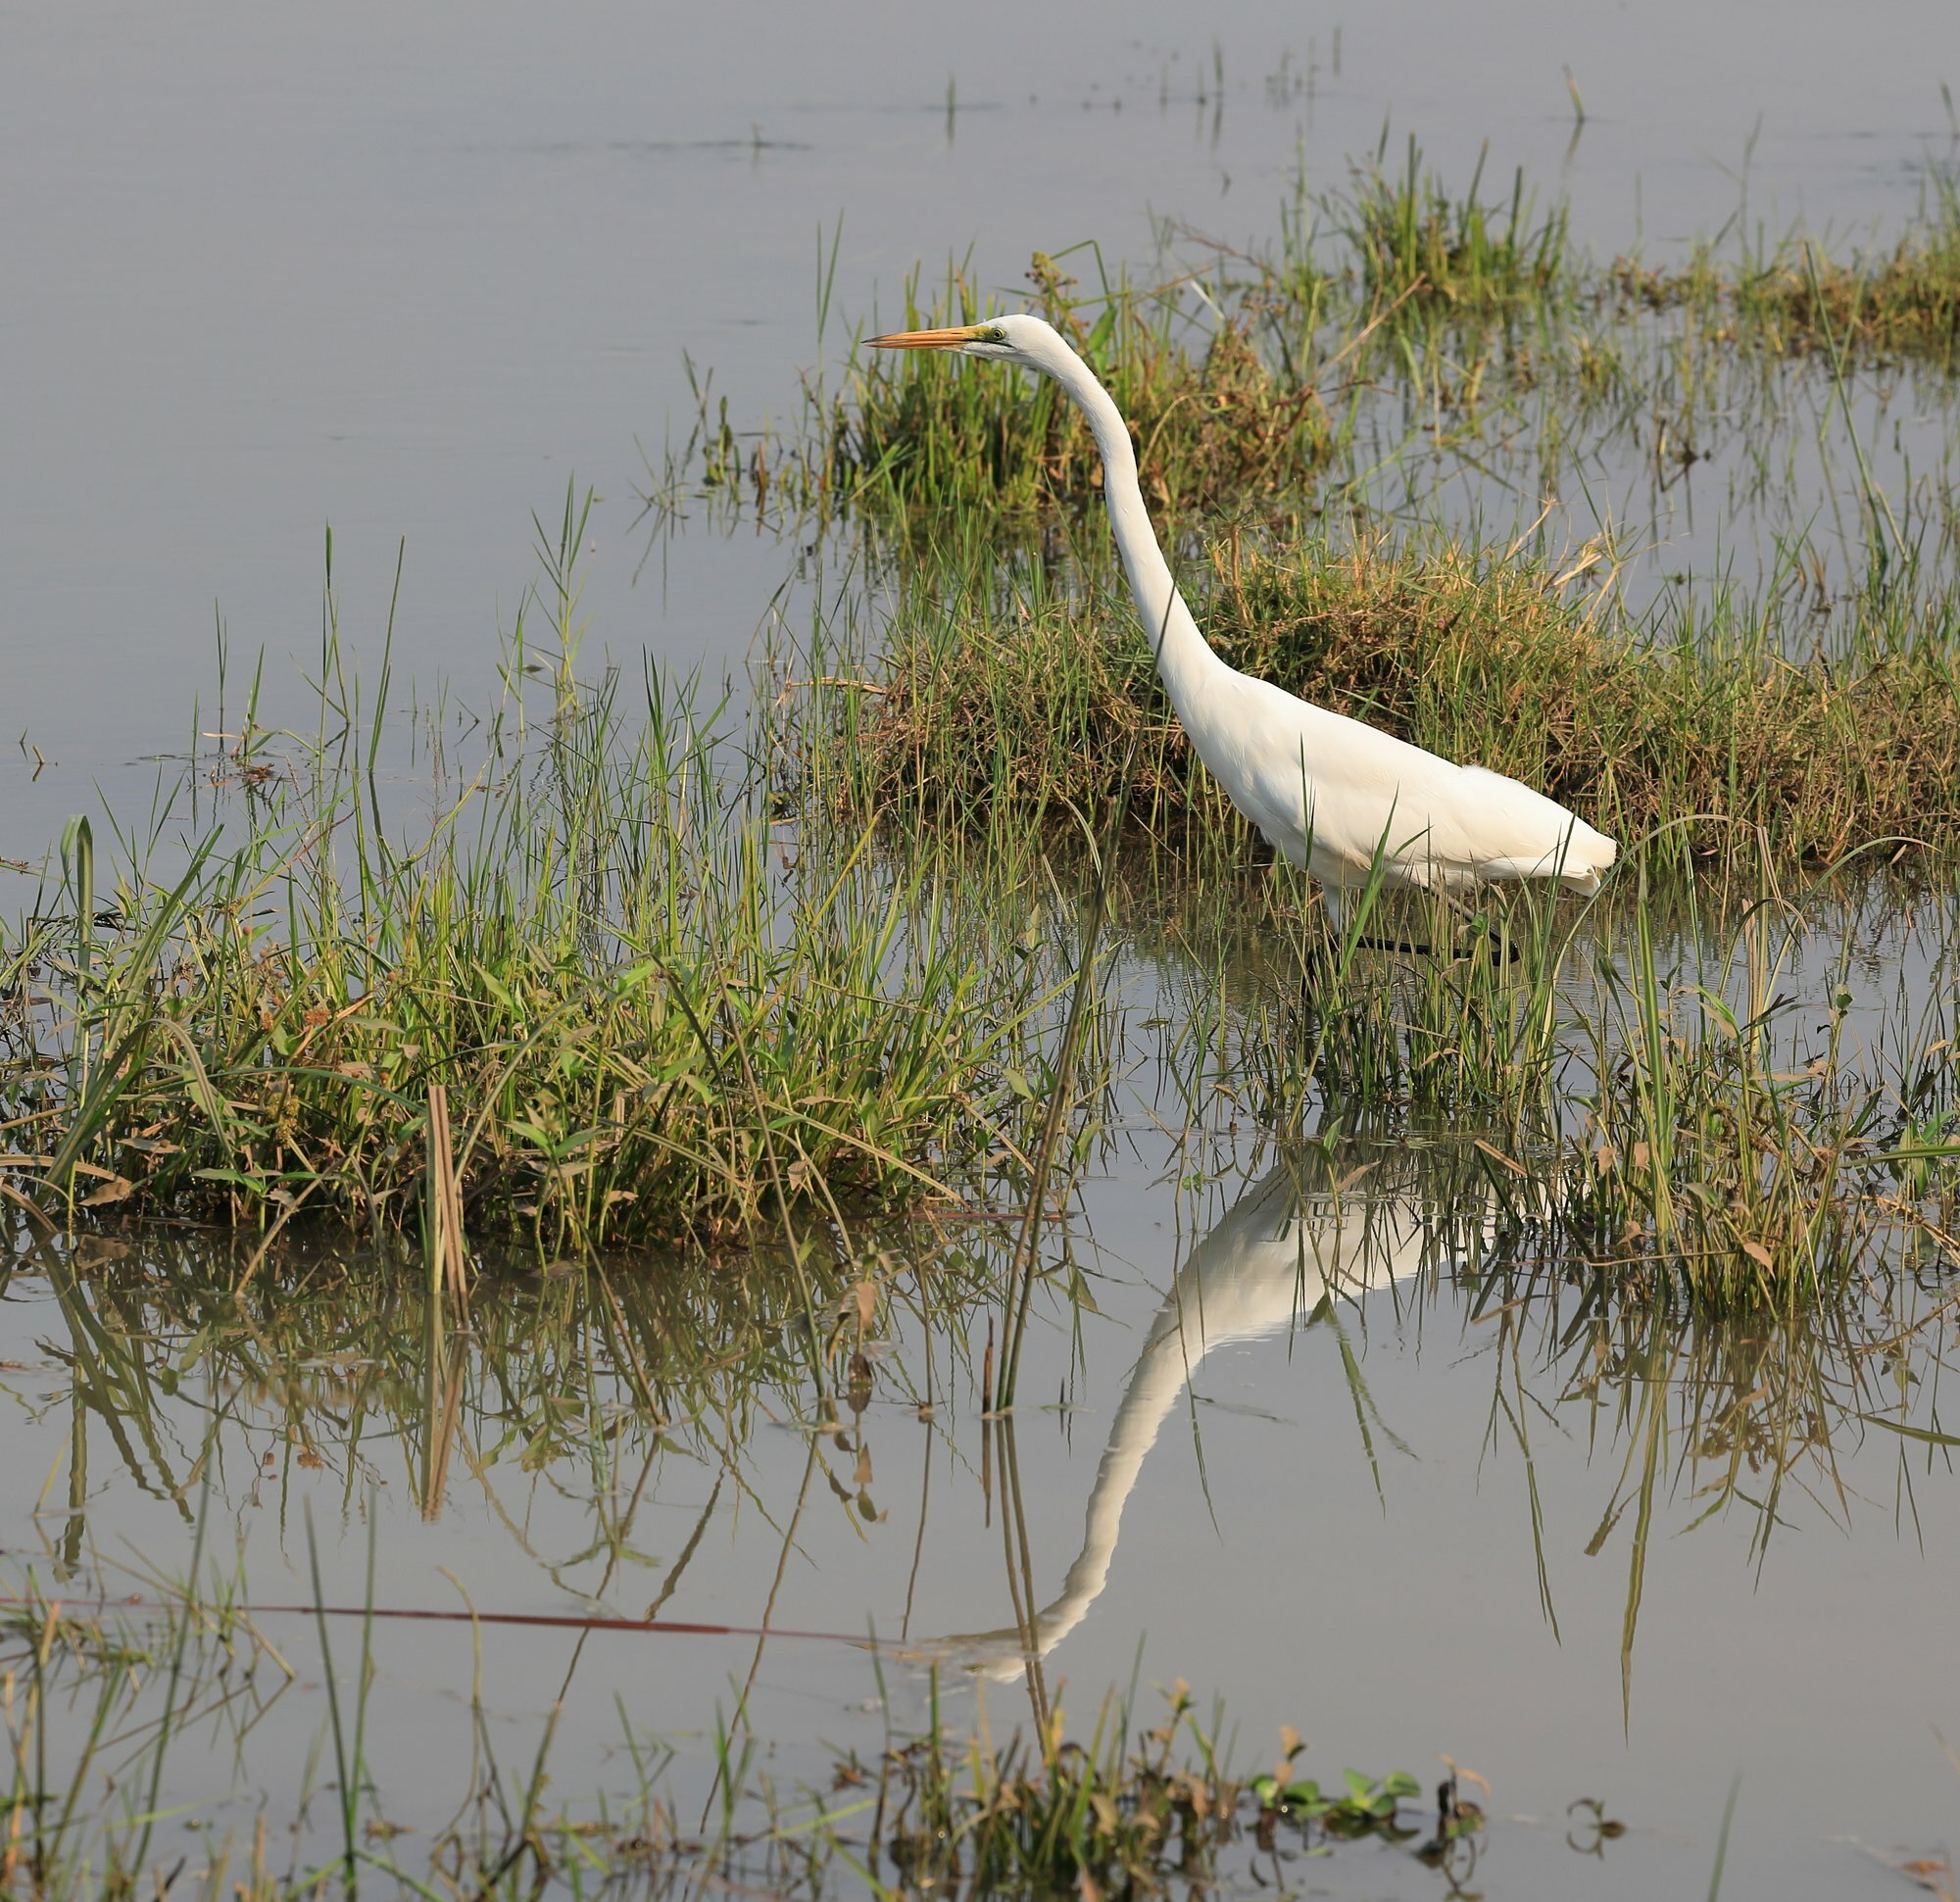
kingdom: Animalia
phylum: Chordata
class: Aves
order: Pelecaniformes
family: Ardeidae
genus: Ardea
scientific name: Ardea alba
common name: Great egret
